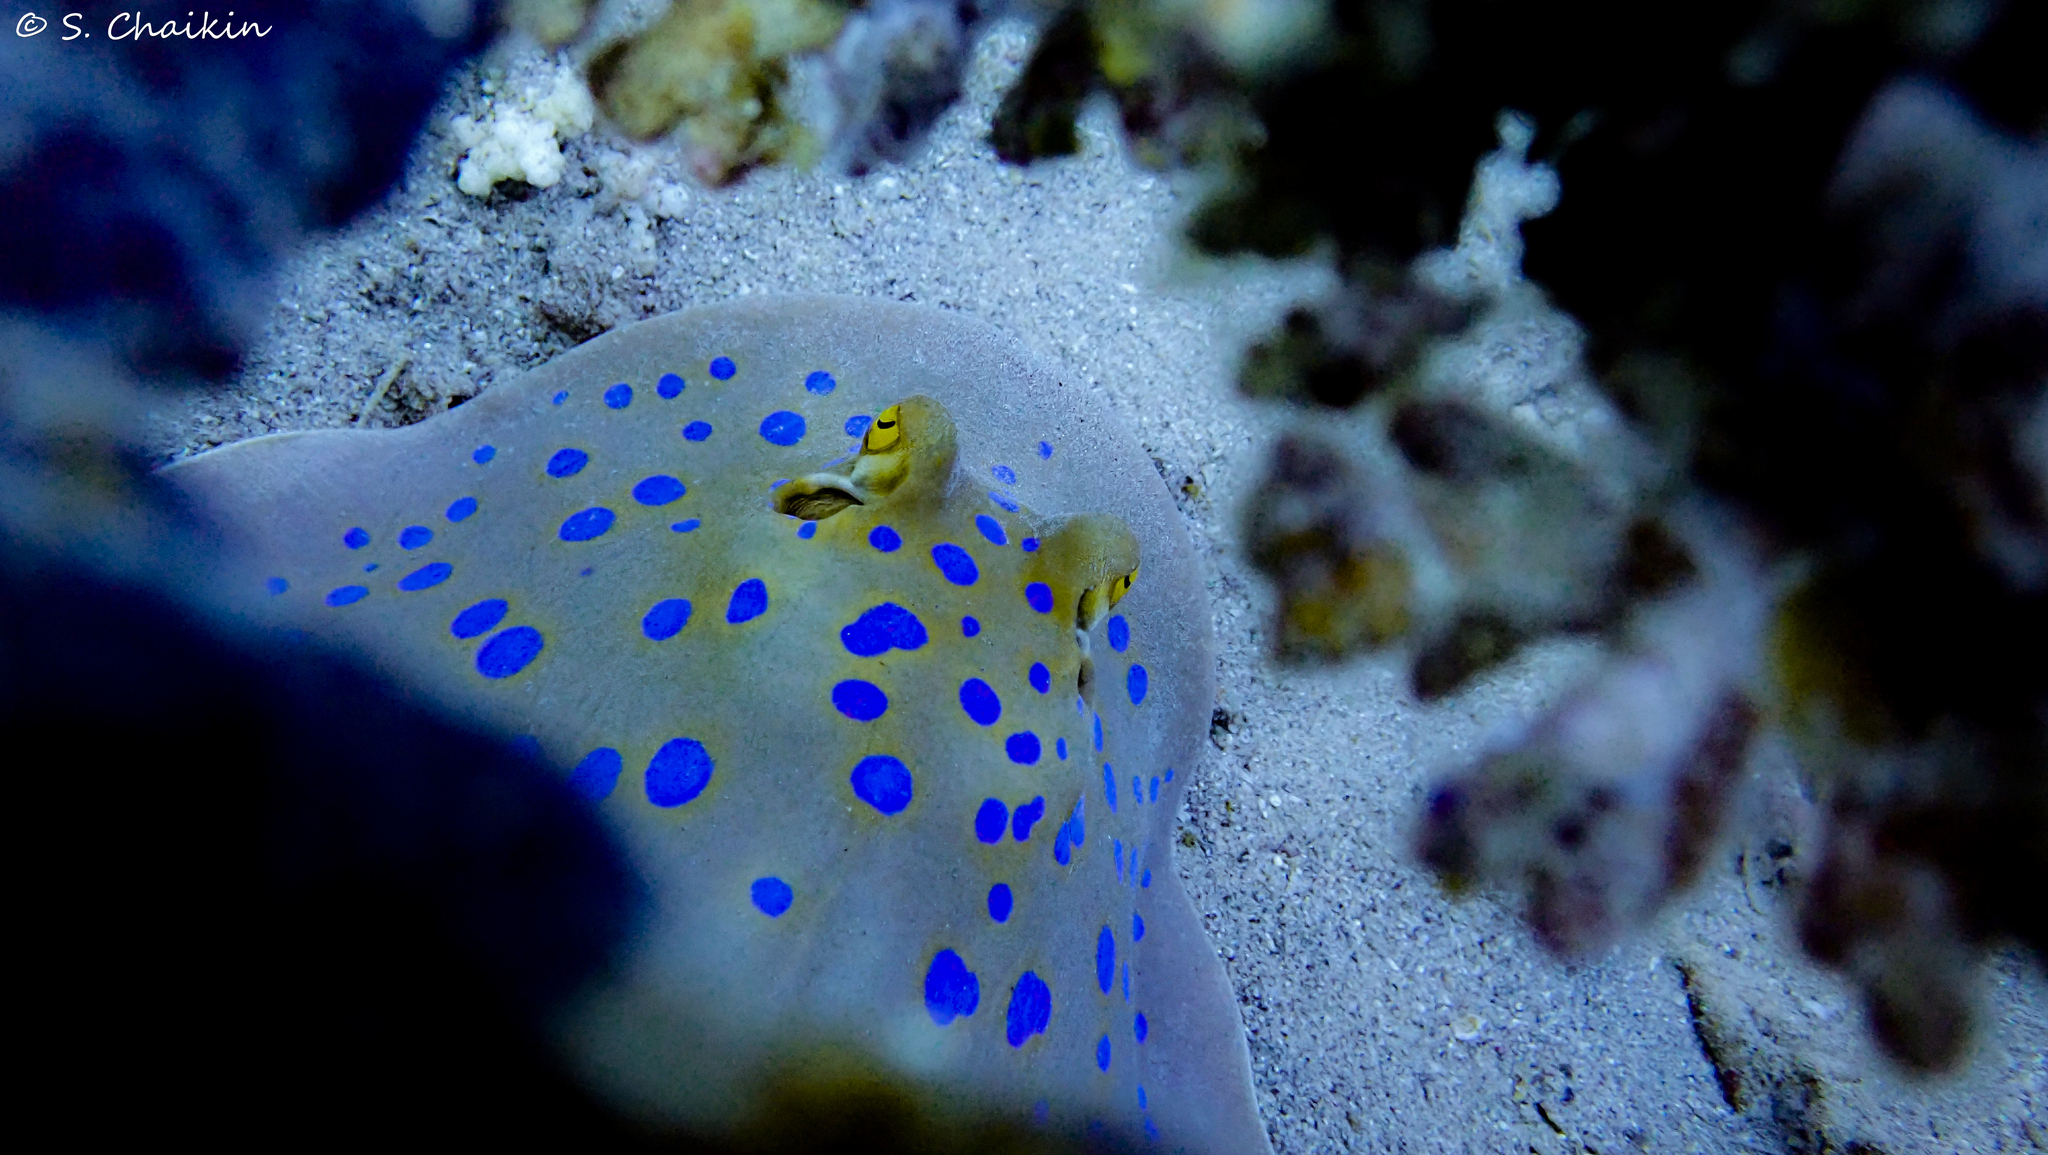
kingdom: Animalia
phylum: Chordata
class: Elasmobranchii
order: Myliobatiformes
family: Dasyatidae
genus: Taeniura
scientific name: Taeniura lymma
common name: Bluespotted ribbontail ray
